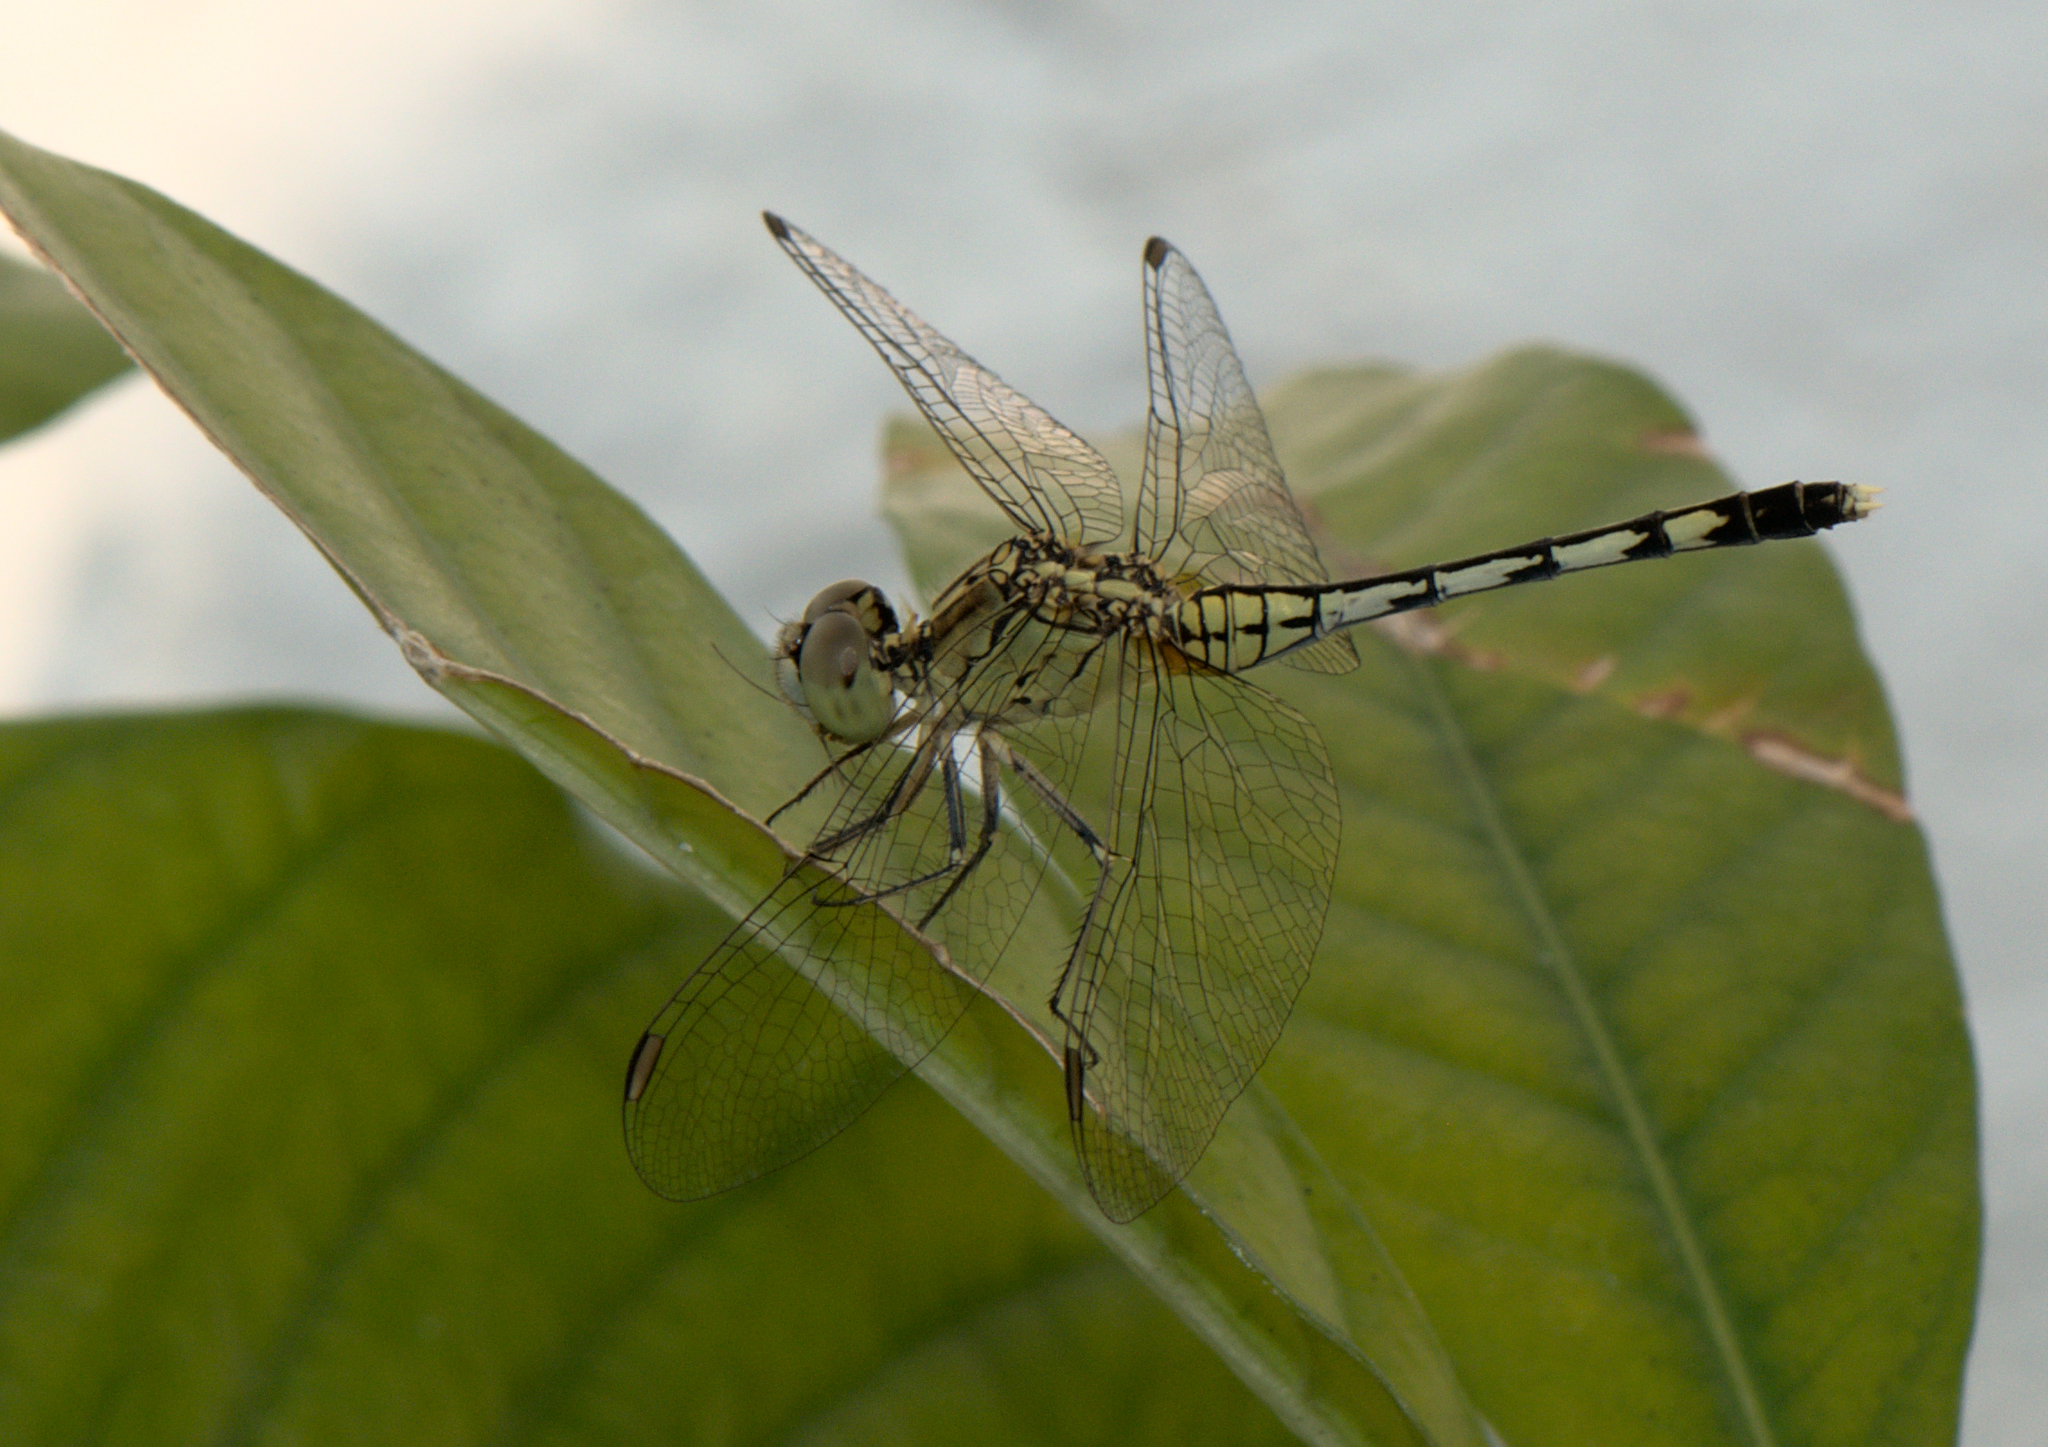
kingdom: Animalia
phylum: Arthropoda
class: Insecta
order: Odonata
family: Libellulidae
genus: Diplacodes
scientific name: Diplacodes trivialis
